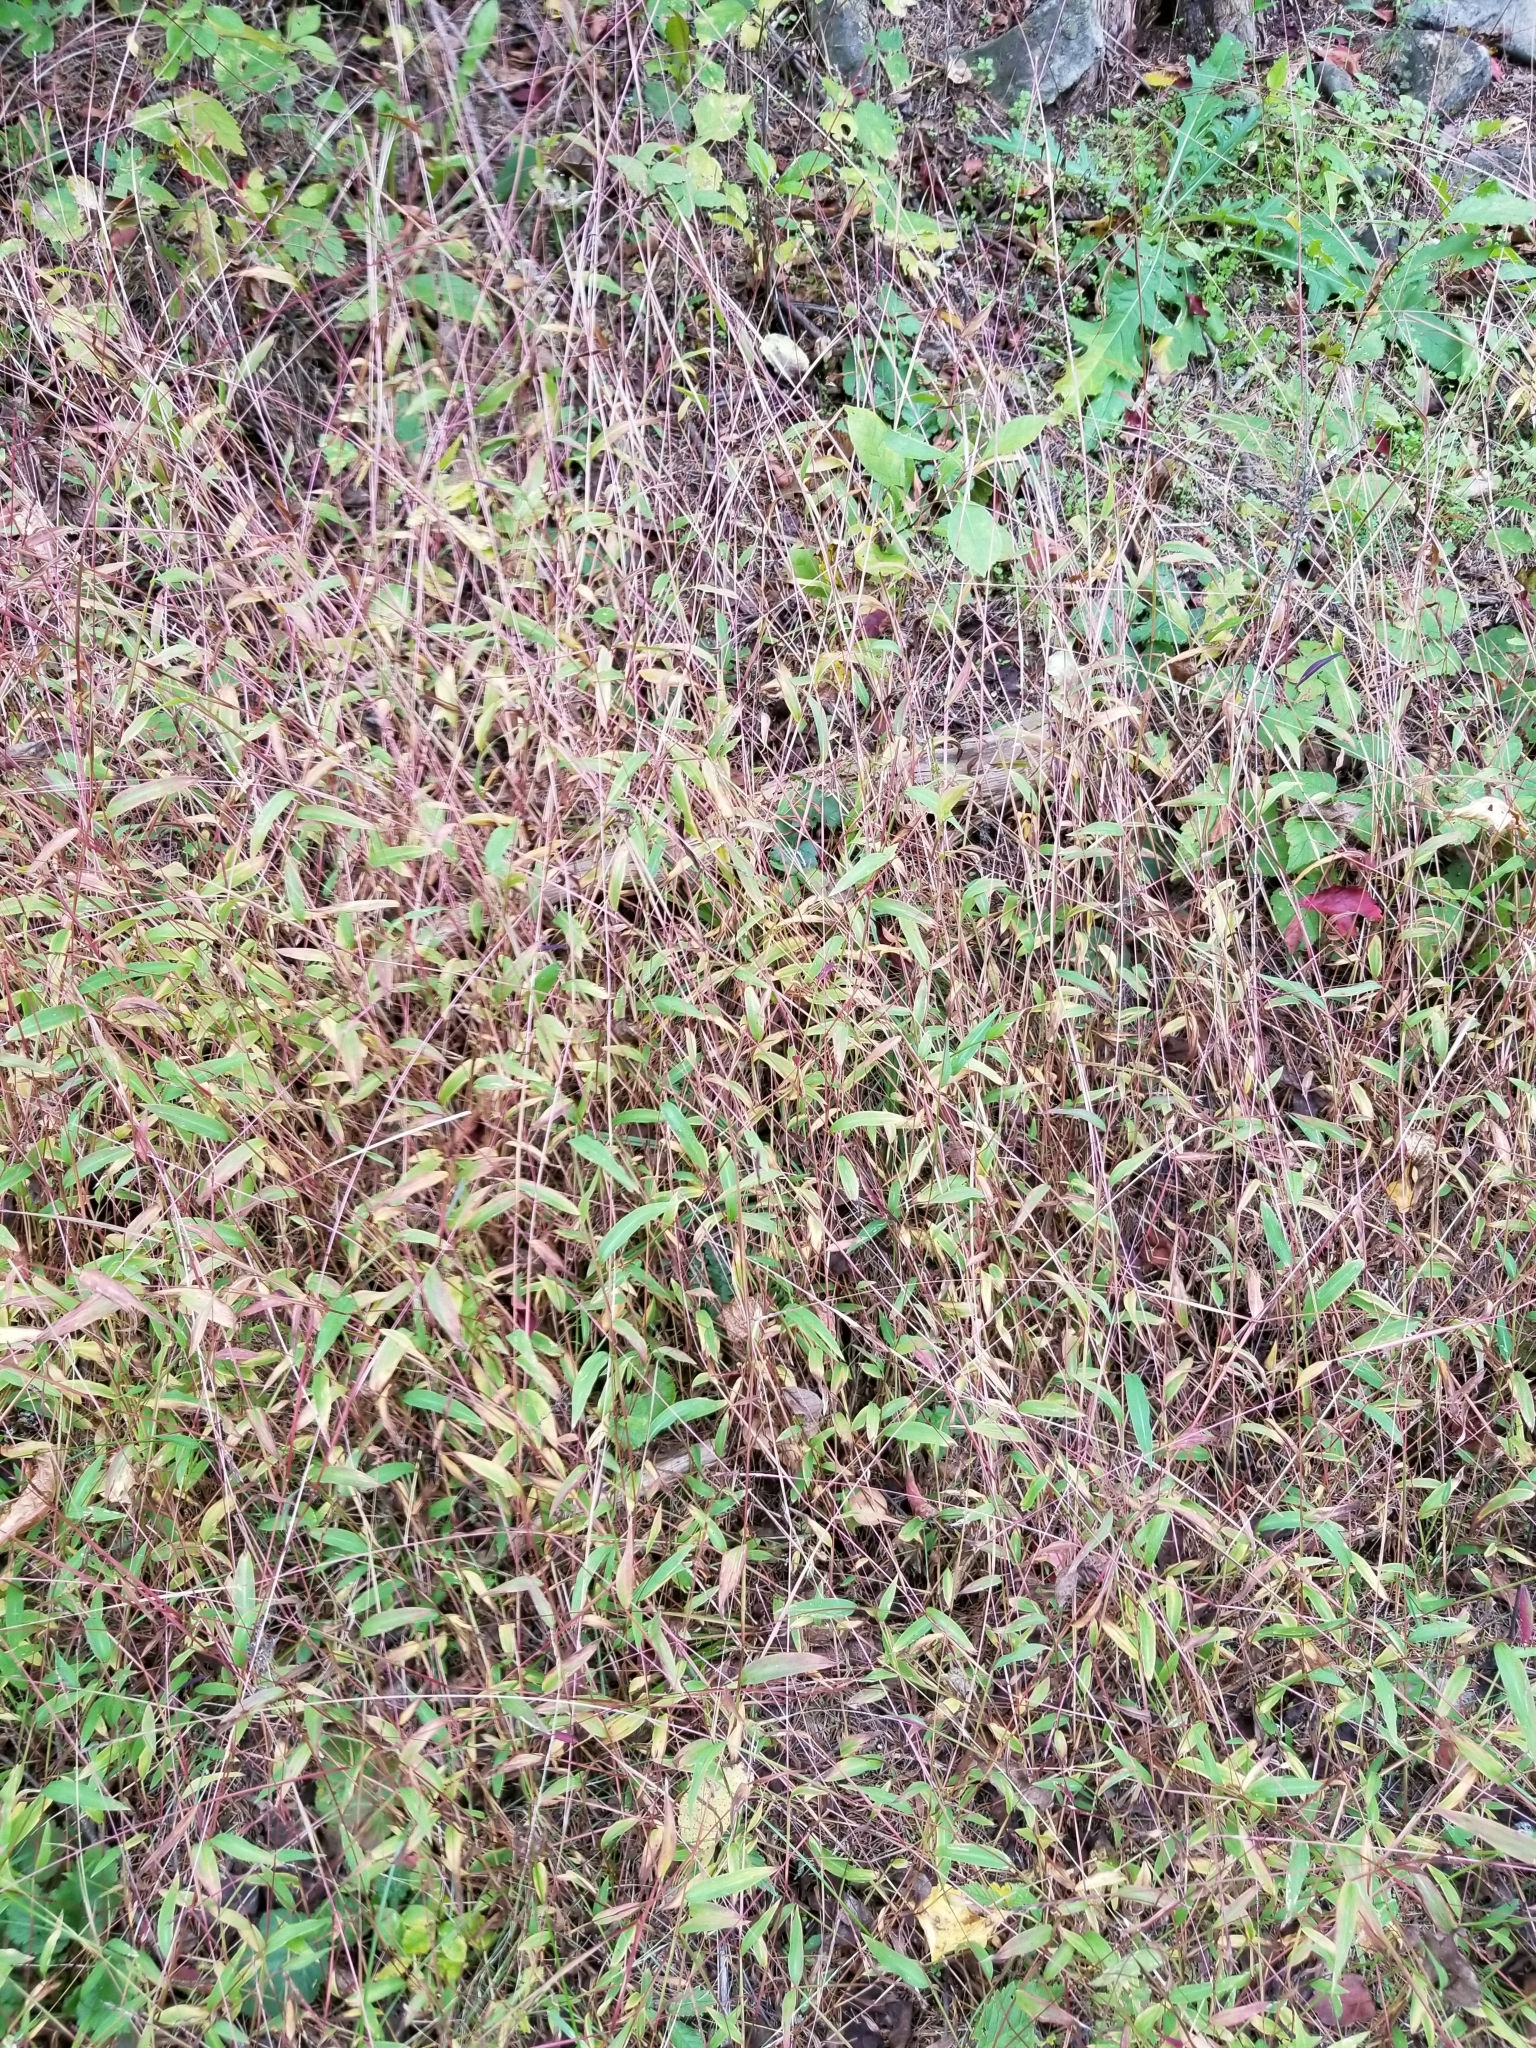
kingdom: Plantae
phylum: Tracheophyta
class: Liliopsida
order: Poales
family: Poaceae
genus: Microstegium
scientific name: Microstegium vimineum
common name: Japanese stiltgrass
